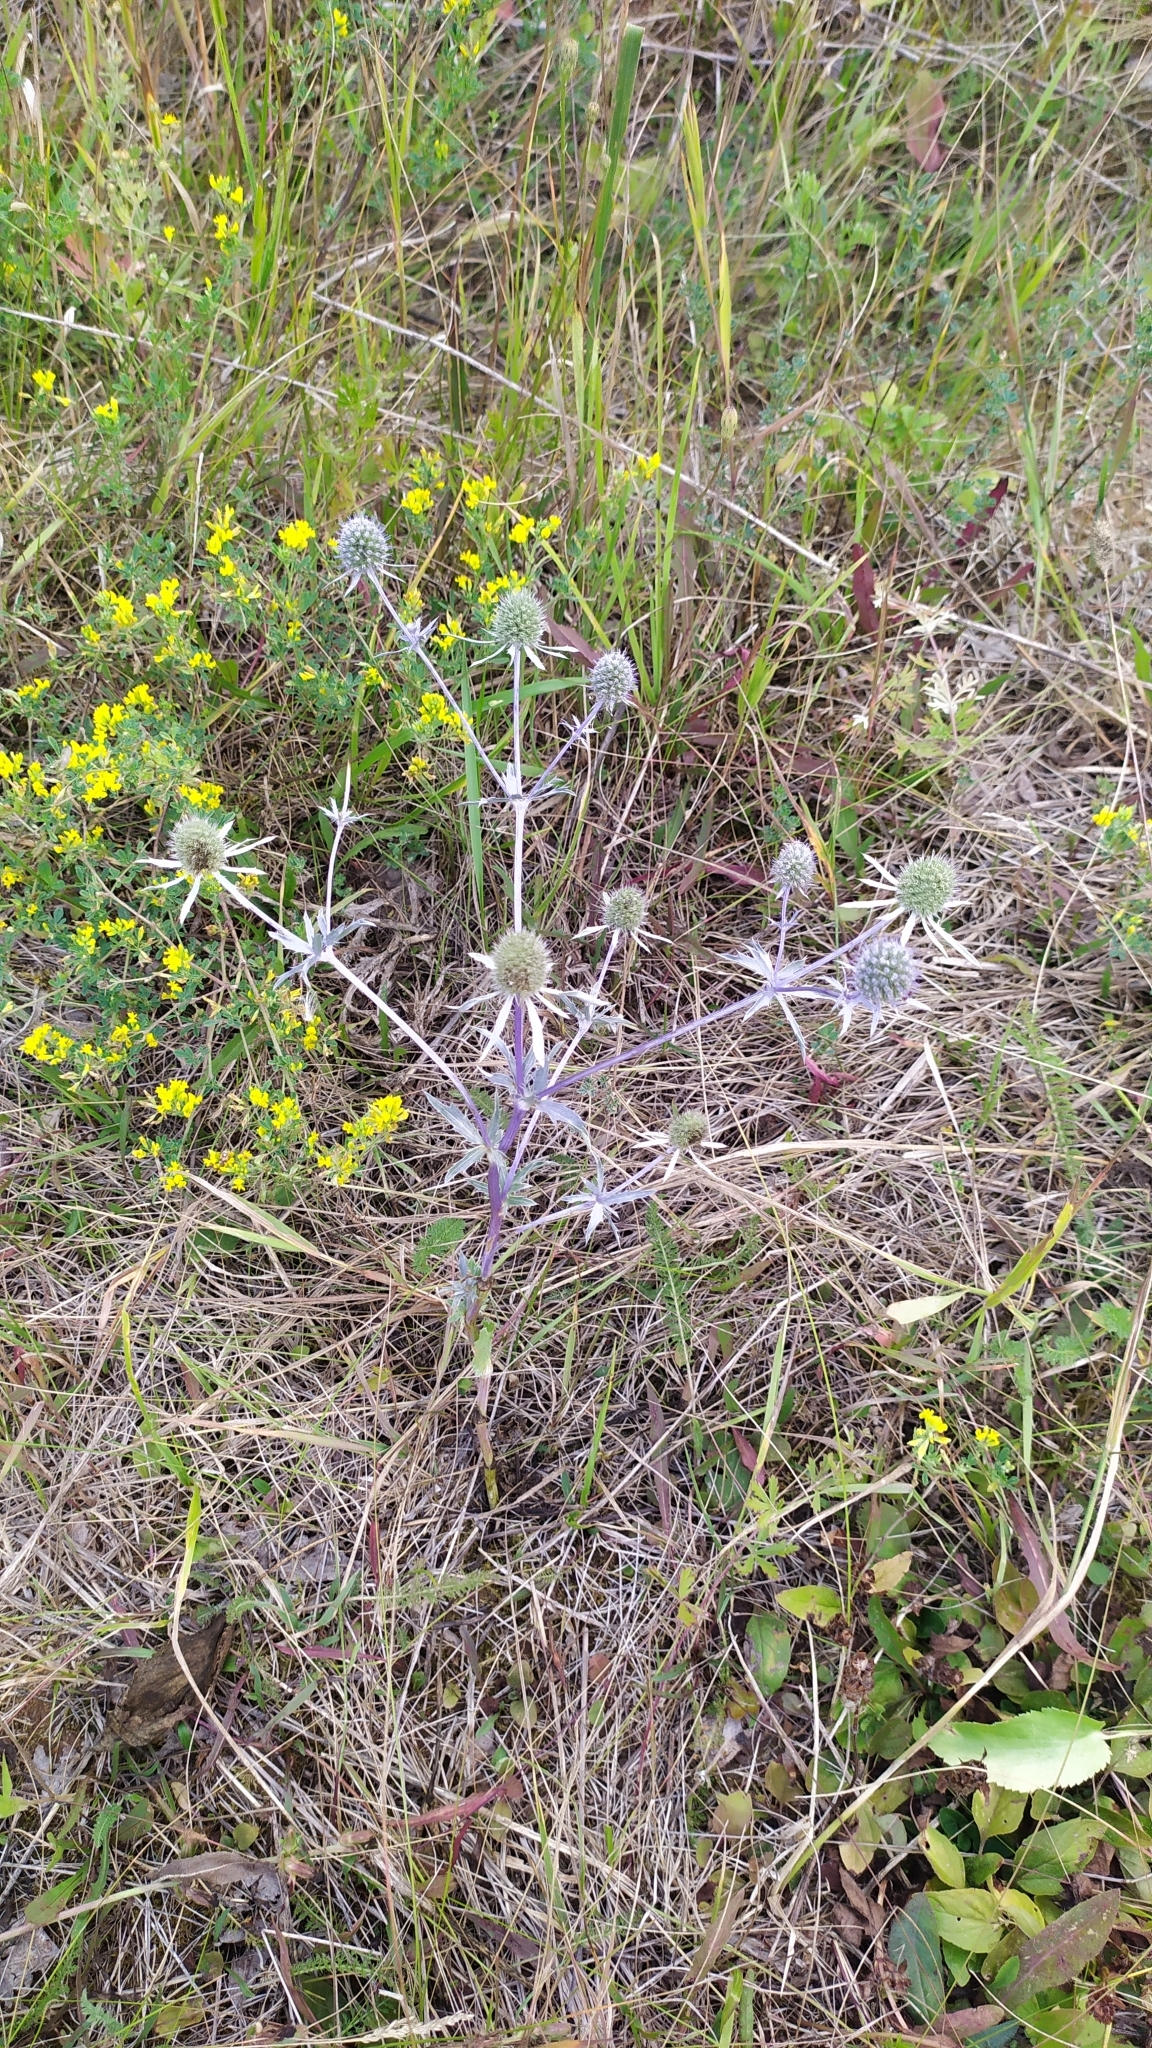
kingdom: Plantae
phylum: Tracheophyta
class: Magnoliopsida
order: Apiales
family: Apiaceae
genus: Eryngium
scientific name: Eryngium planum
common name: Blue eryngo
